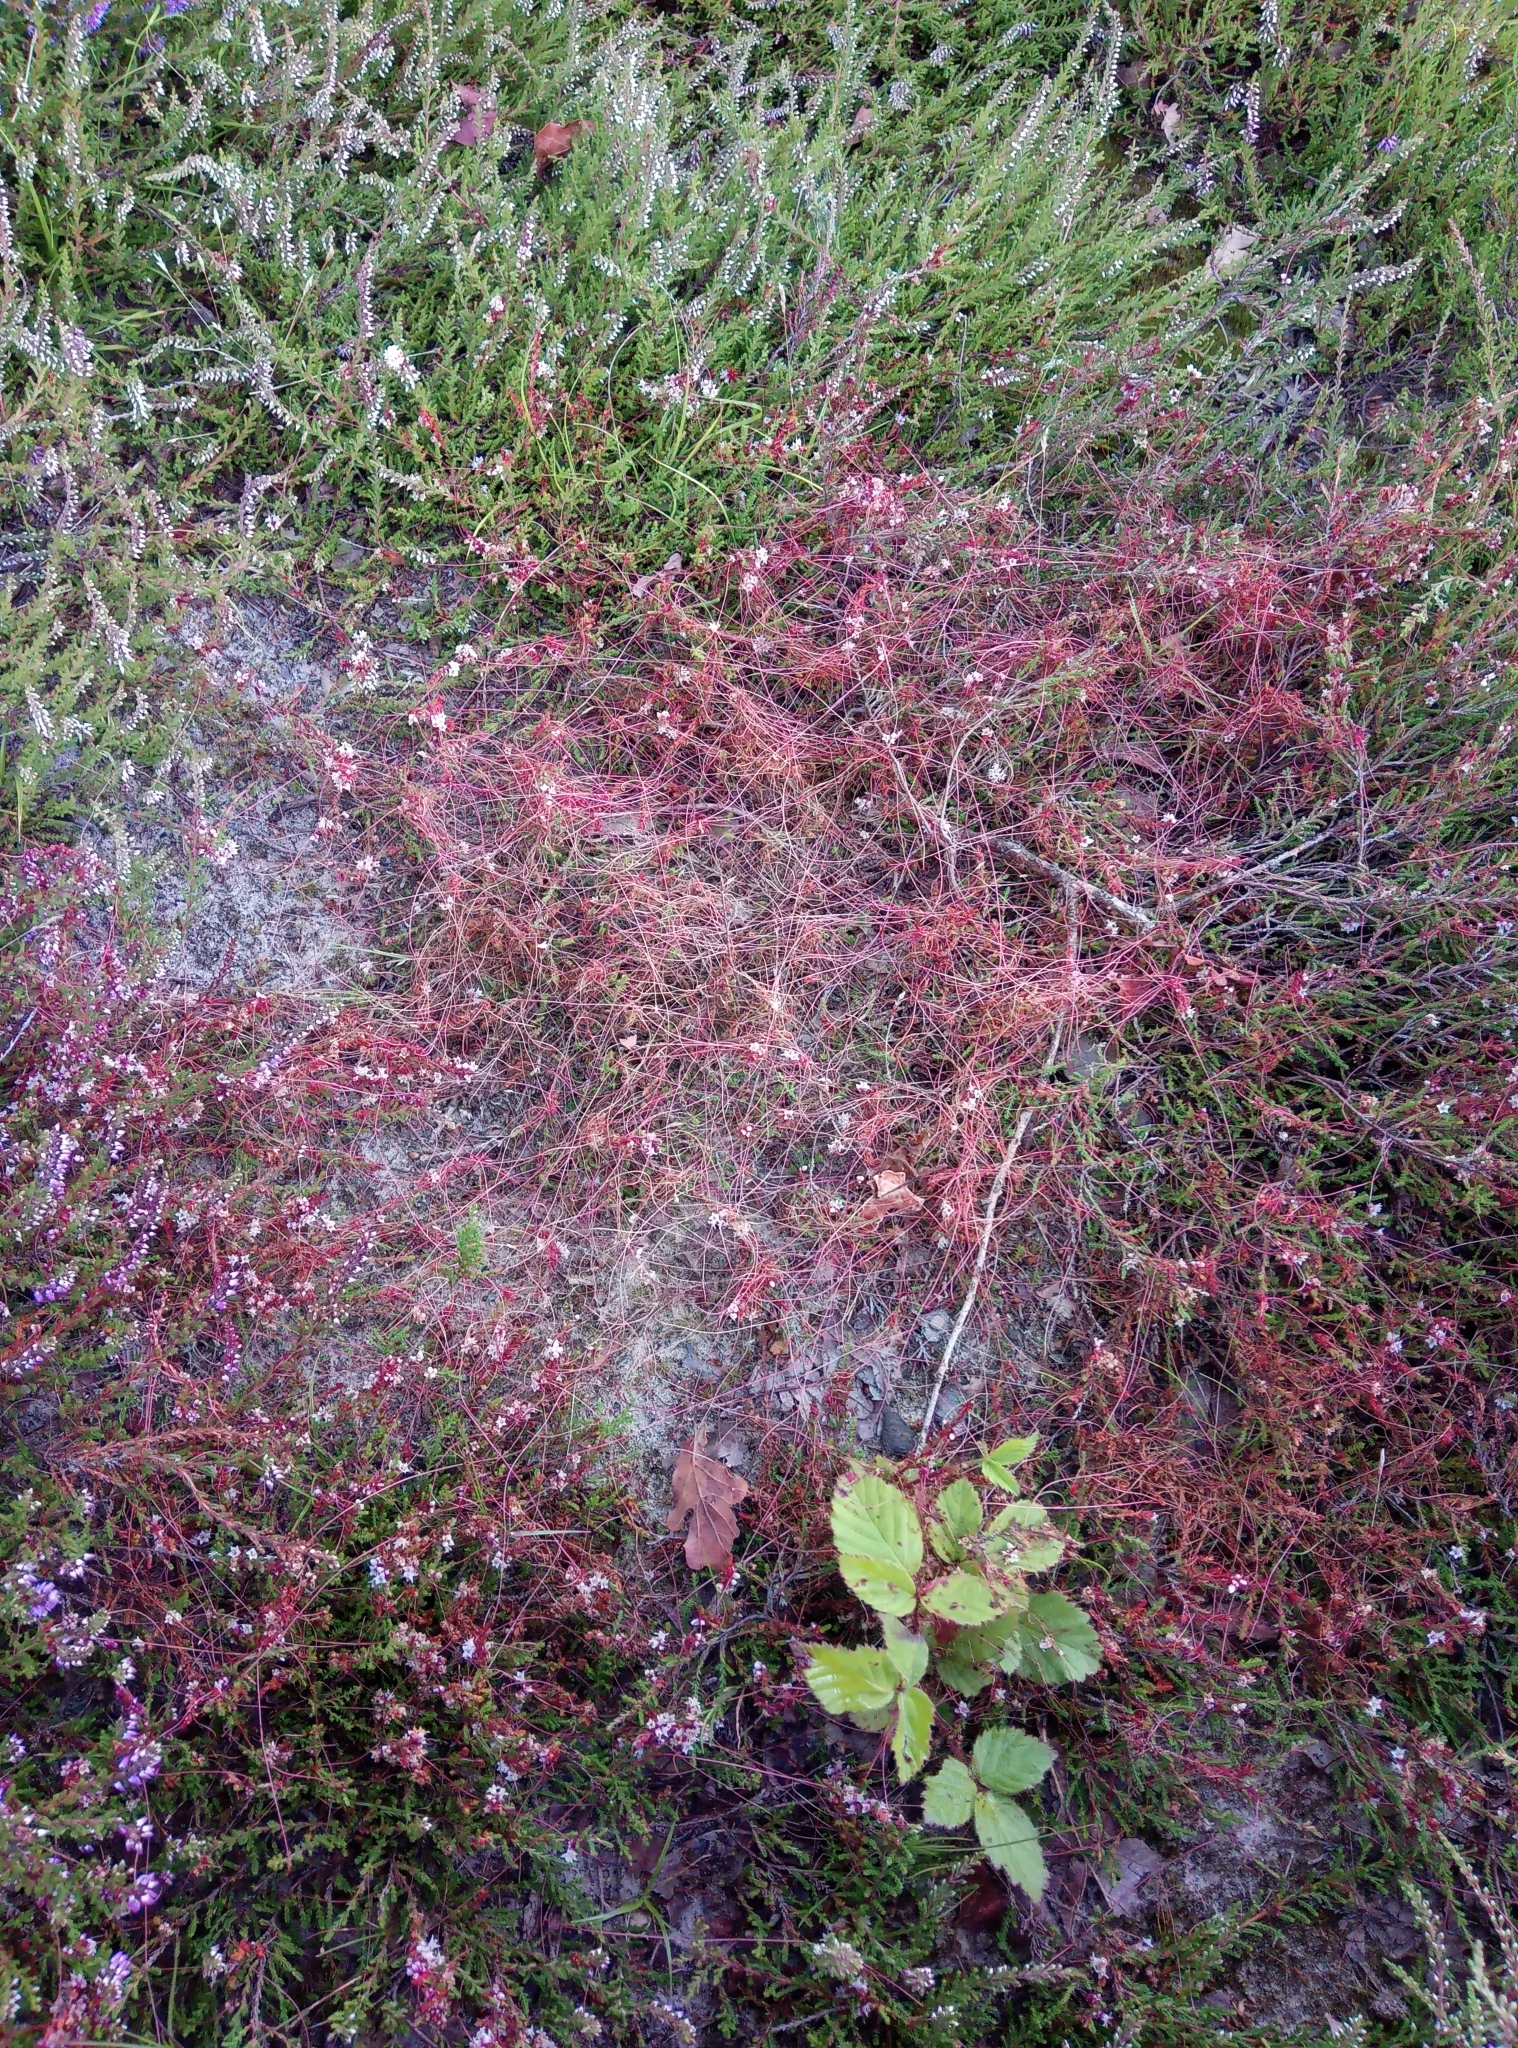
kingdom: Plantae
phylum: Tracheophyta
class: Magnoliopsida
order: Solanales
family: Convolvulaceae
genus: Cuscuta
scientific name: Cuscuta epithymum
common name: Clover dodder
